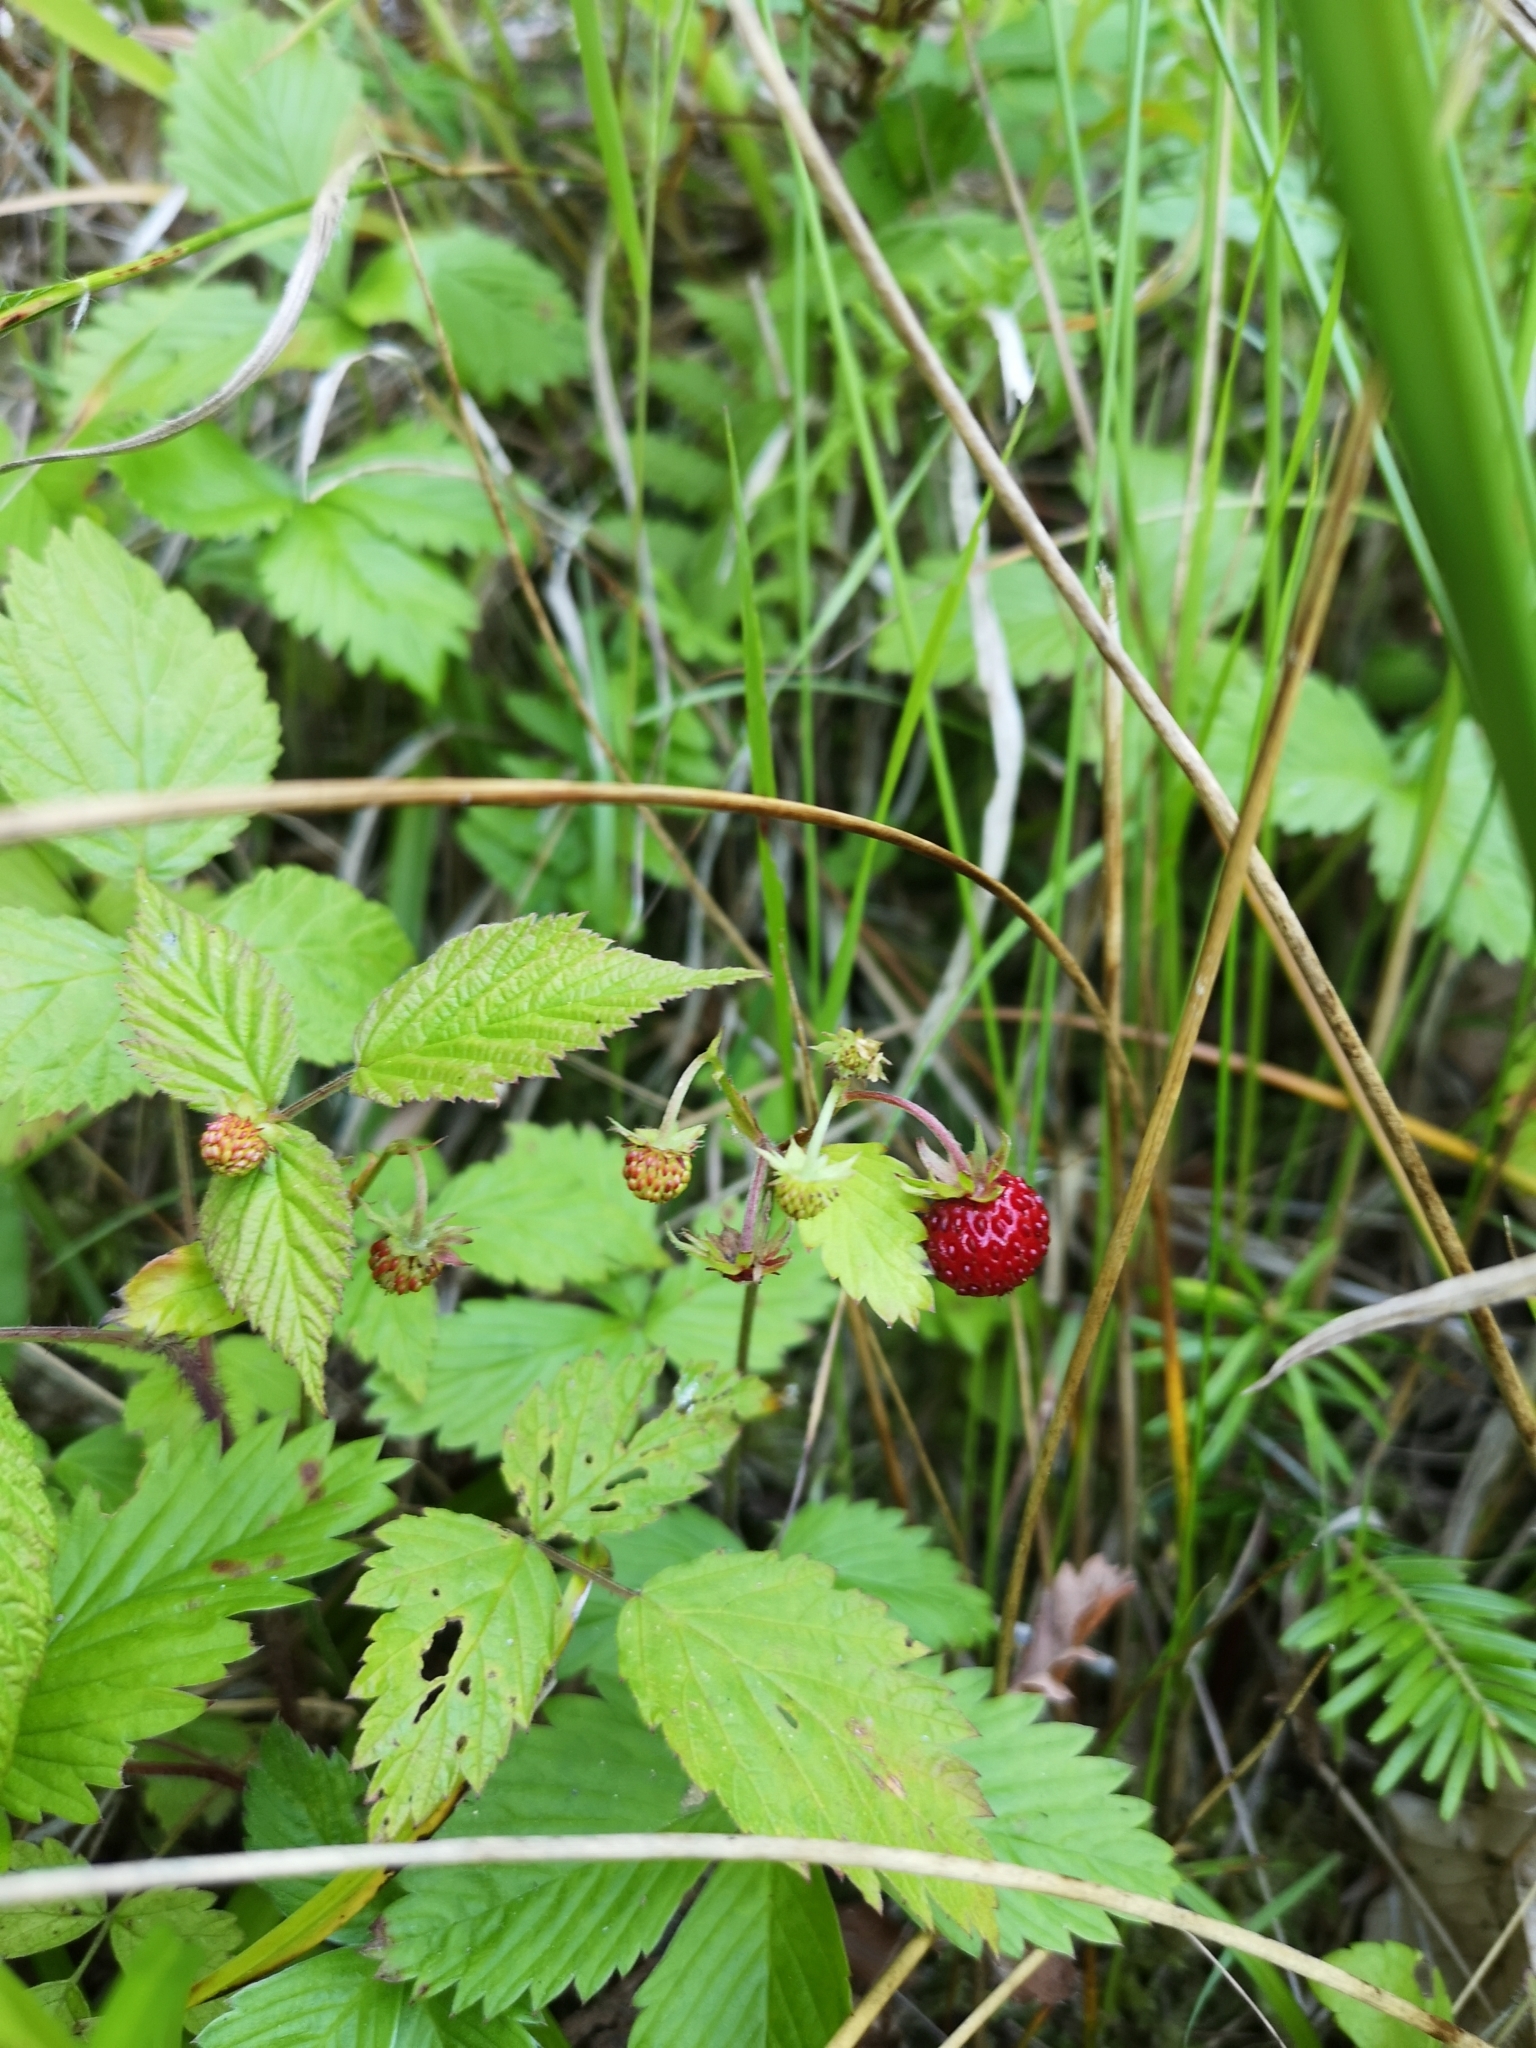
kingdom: Plantae
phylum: Tracheophyta
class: Magnoliopsida
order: Rosales
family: Rosaceae
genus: Fragaria
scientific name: Fragaria vesca
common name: Wild strawberry
